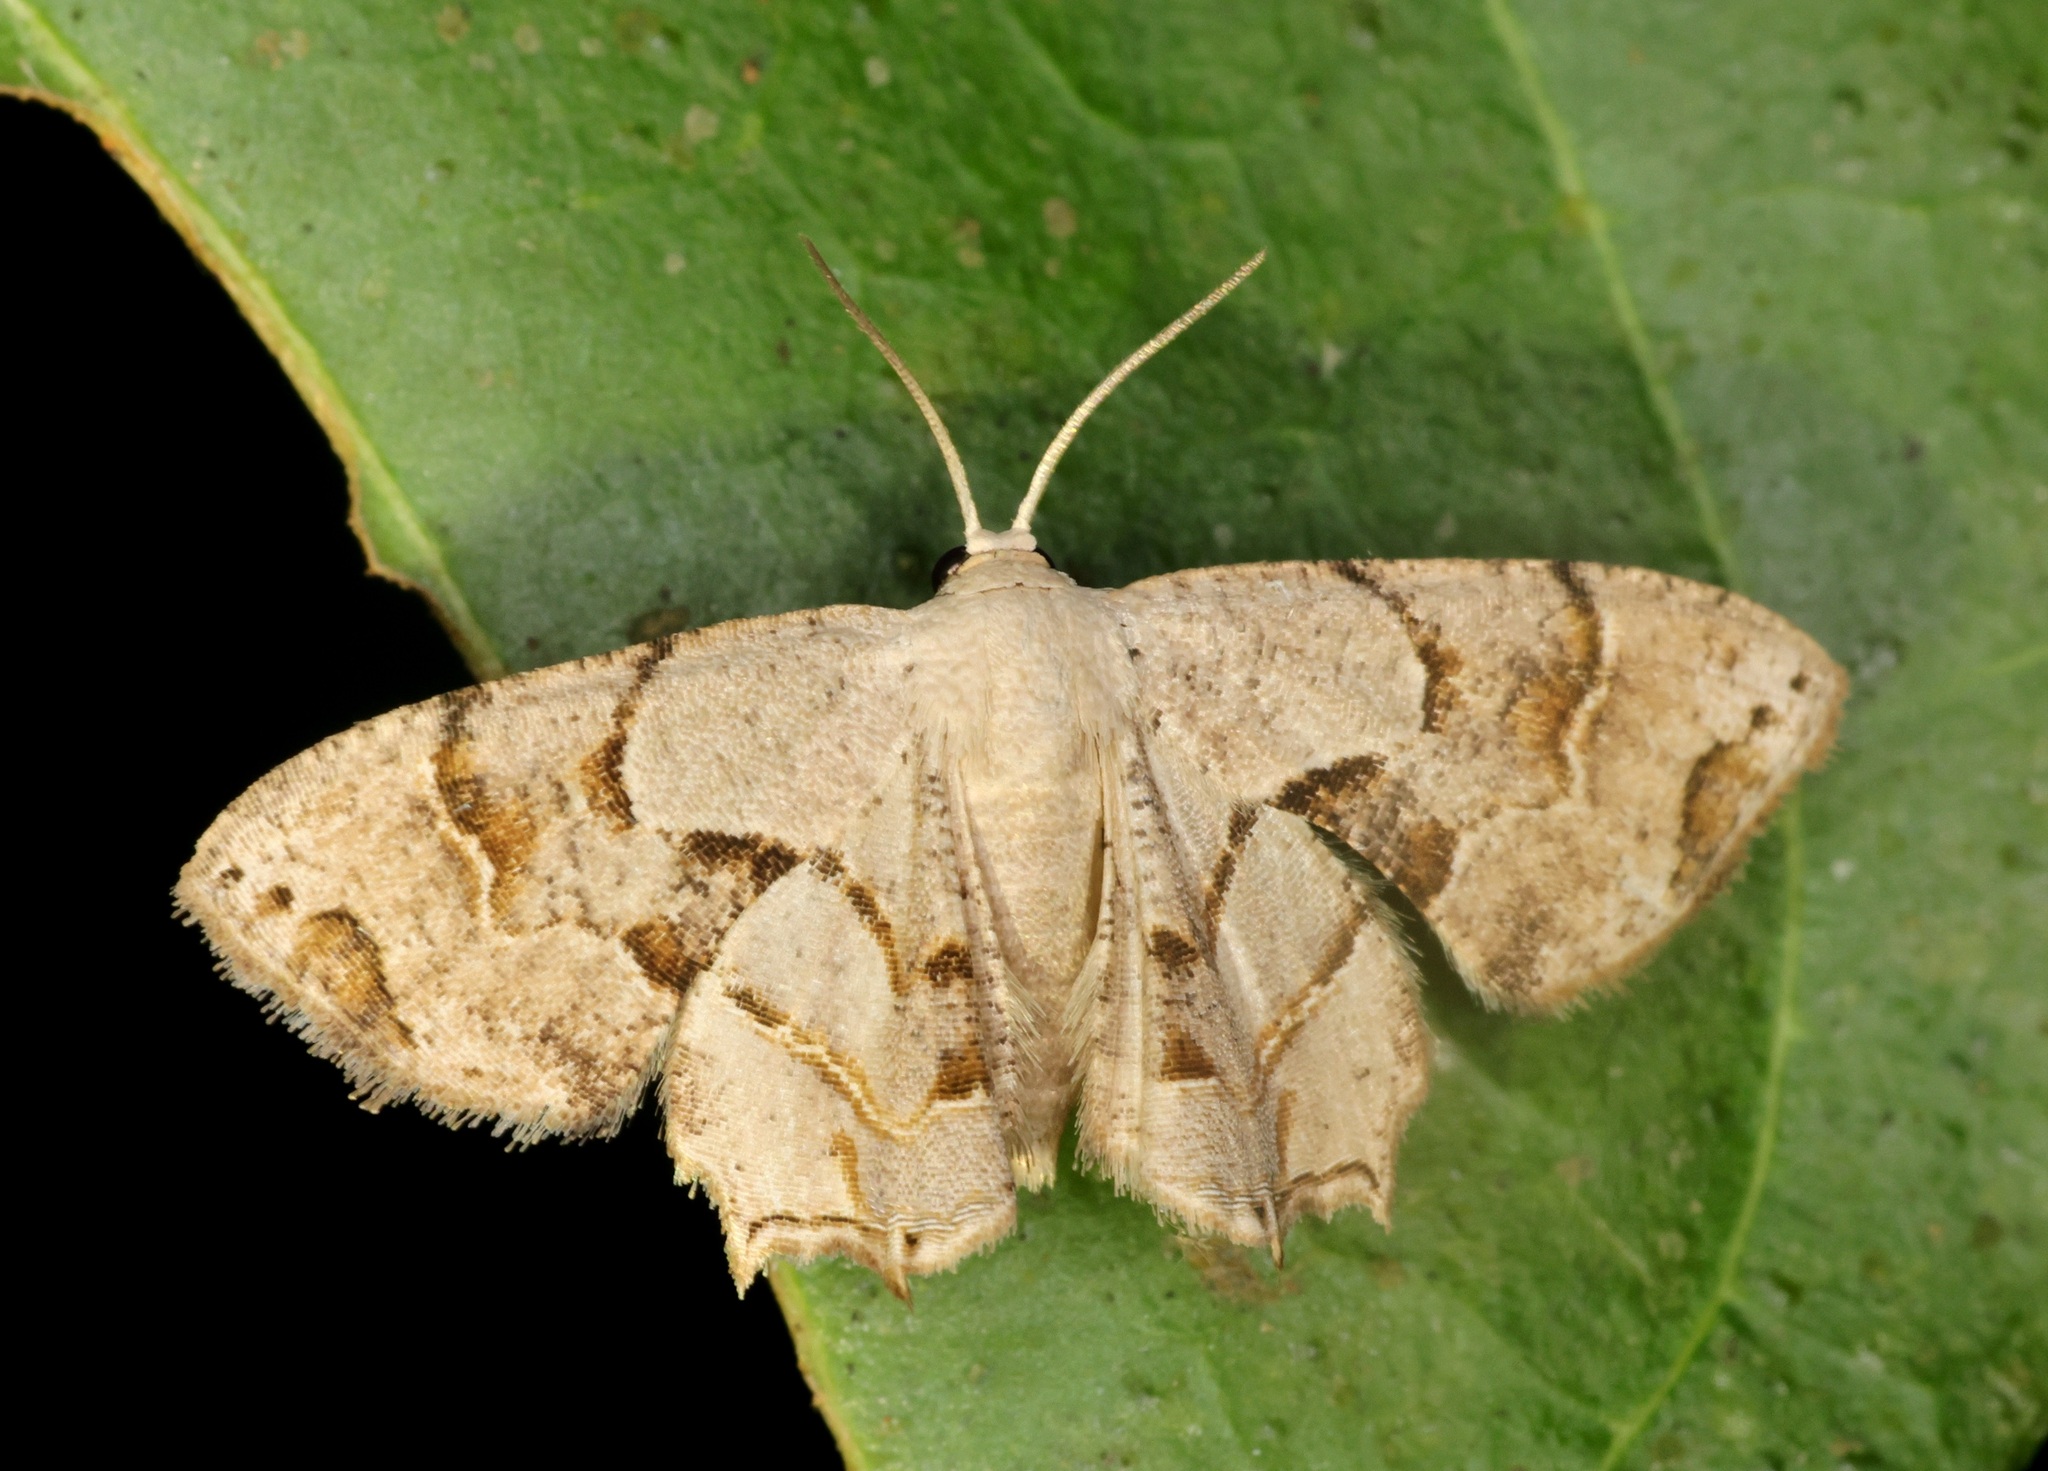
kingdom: Animalia
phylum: Arthropoda
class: Insecta
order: Lepidoptera
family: Uraniidae
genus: Oroplema
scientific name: Oroplema oyamana
